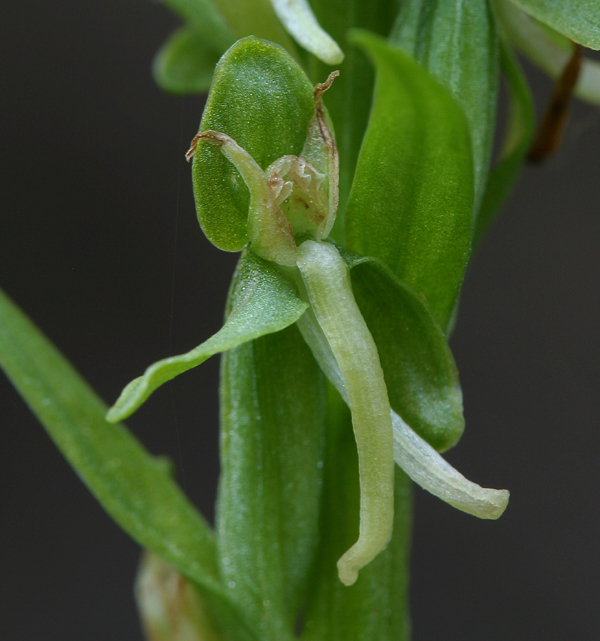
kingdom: Plantae
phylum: Tracheophyta
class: Liliopsida
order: Asparagales
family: Orchidaceae
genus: Platanthera
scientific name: Platanthera sparsiflora
